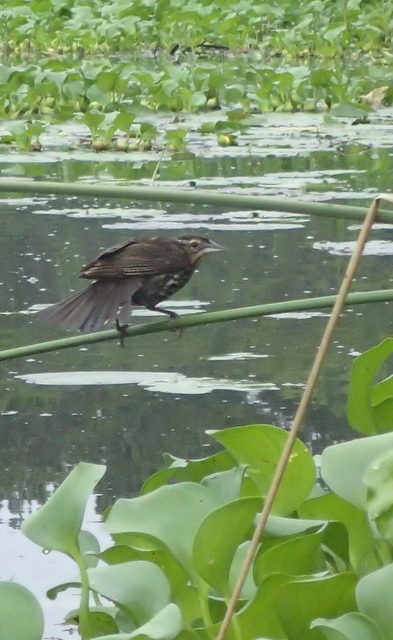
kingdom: Animalia
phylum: Chordata
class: Aves
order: Passeriformes
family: Icteridae
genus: Agelaius
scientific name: Agelaius phoeniceus
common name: Red-winged blackbird
